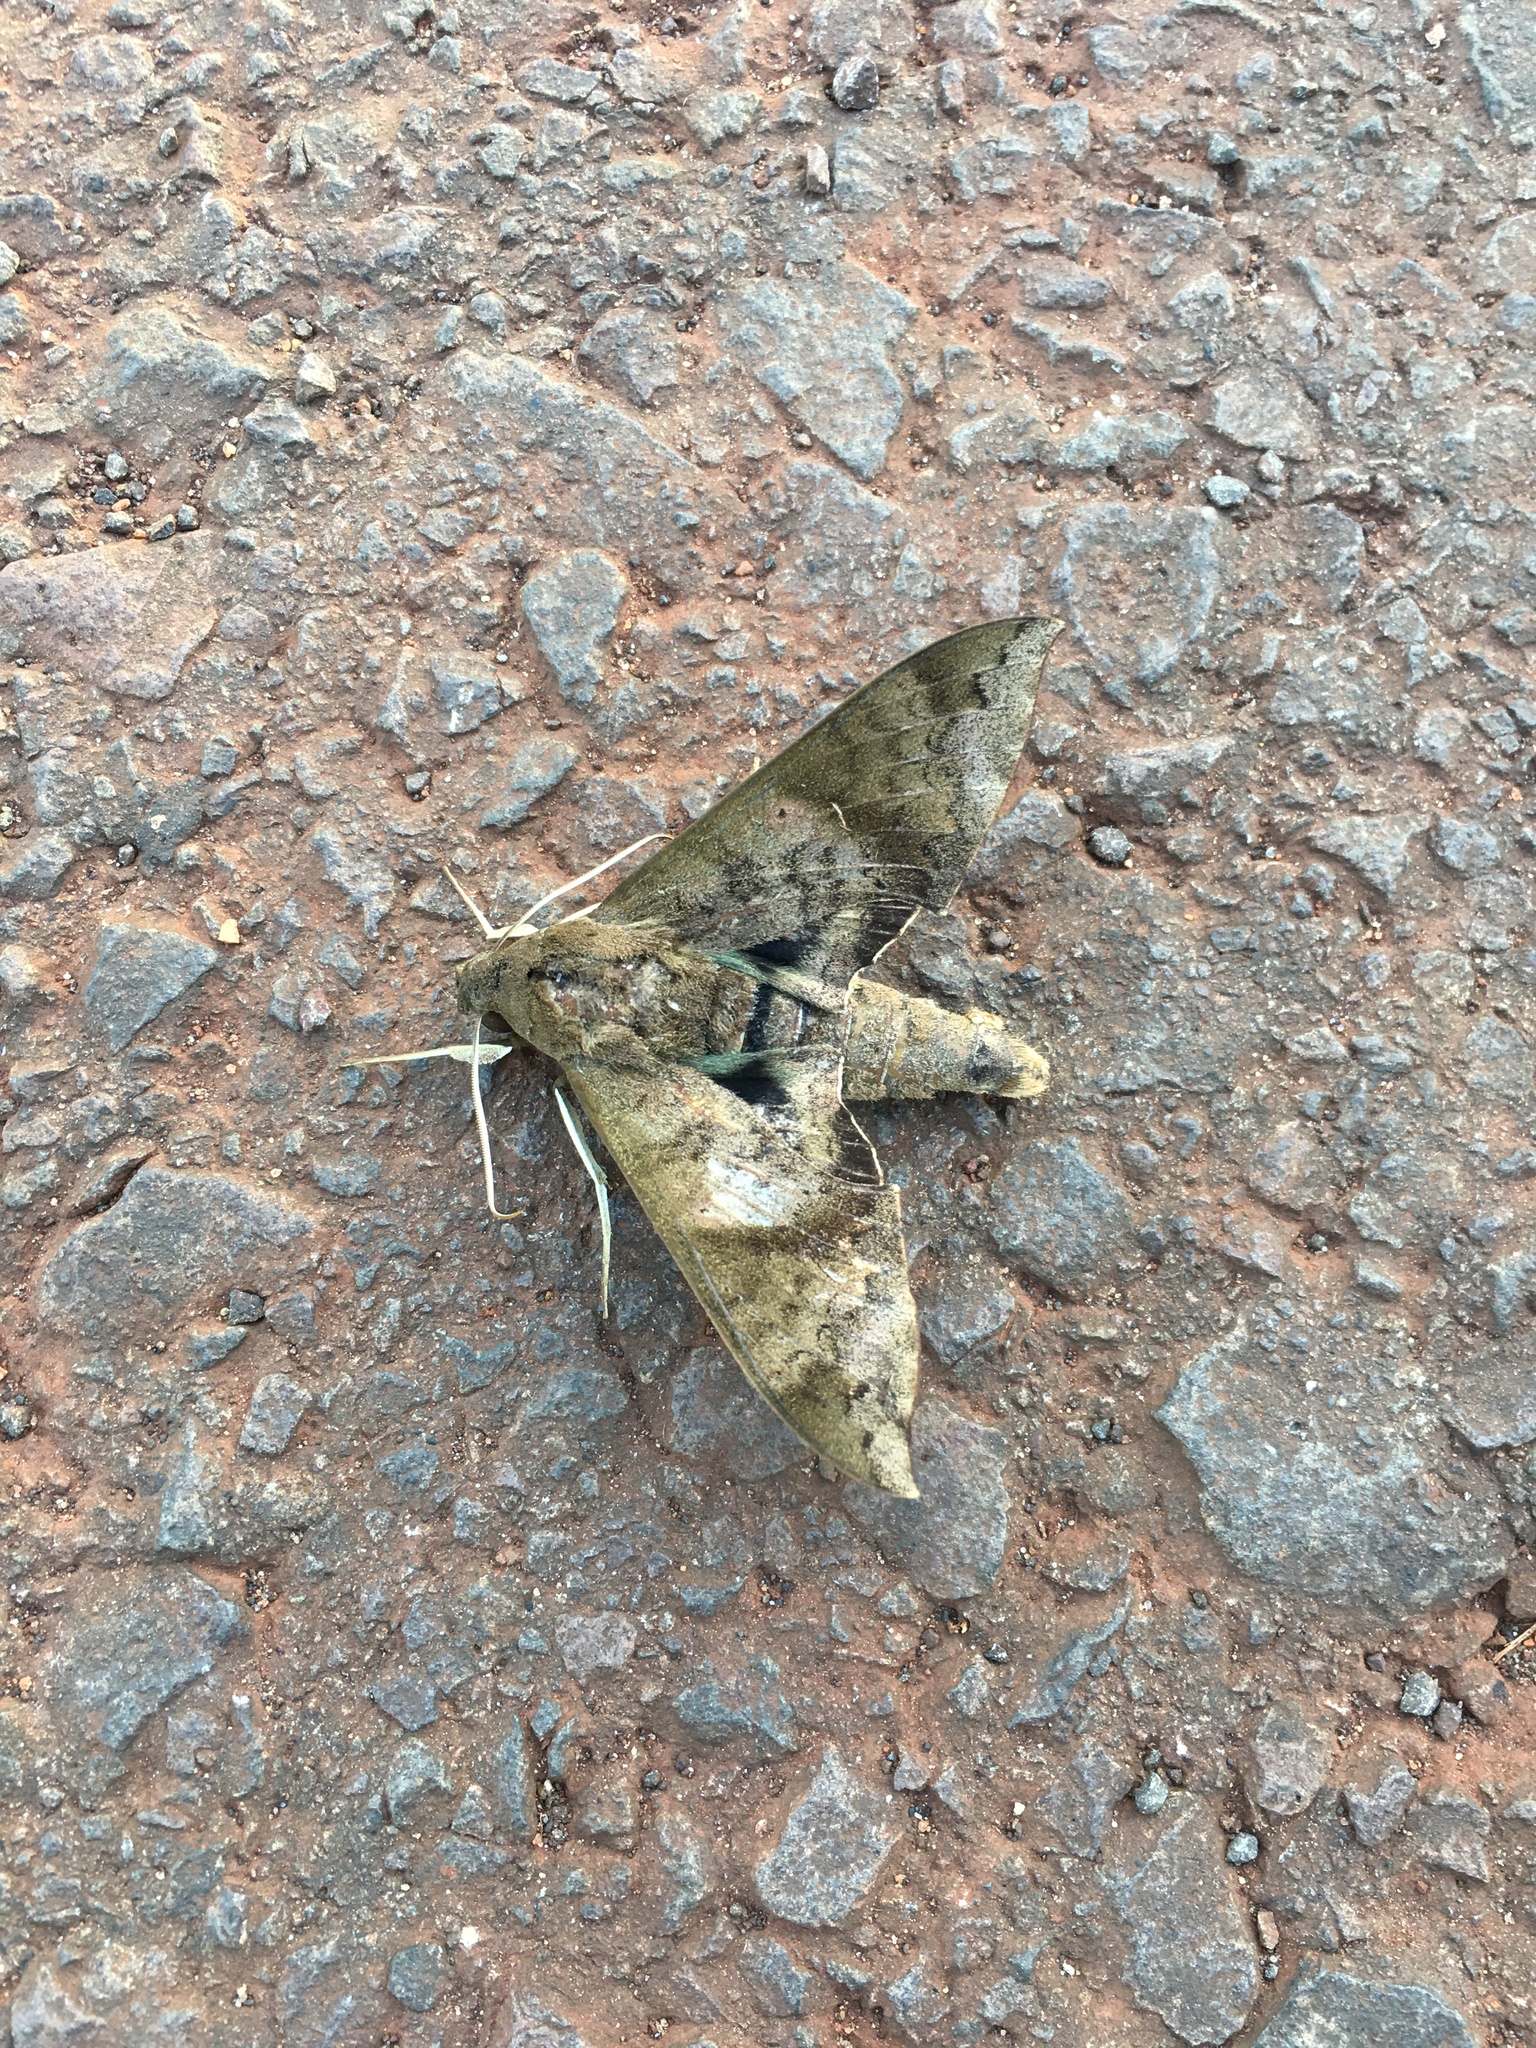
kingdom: Animalia
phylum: Arthropoda
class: Insecta
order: Lepidoptera
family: Sphingidae
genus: Pachylioides
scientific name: Pachylioides resumens
